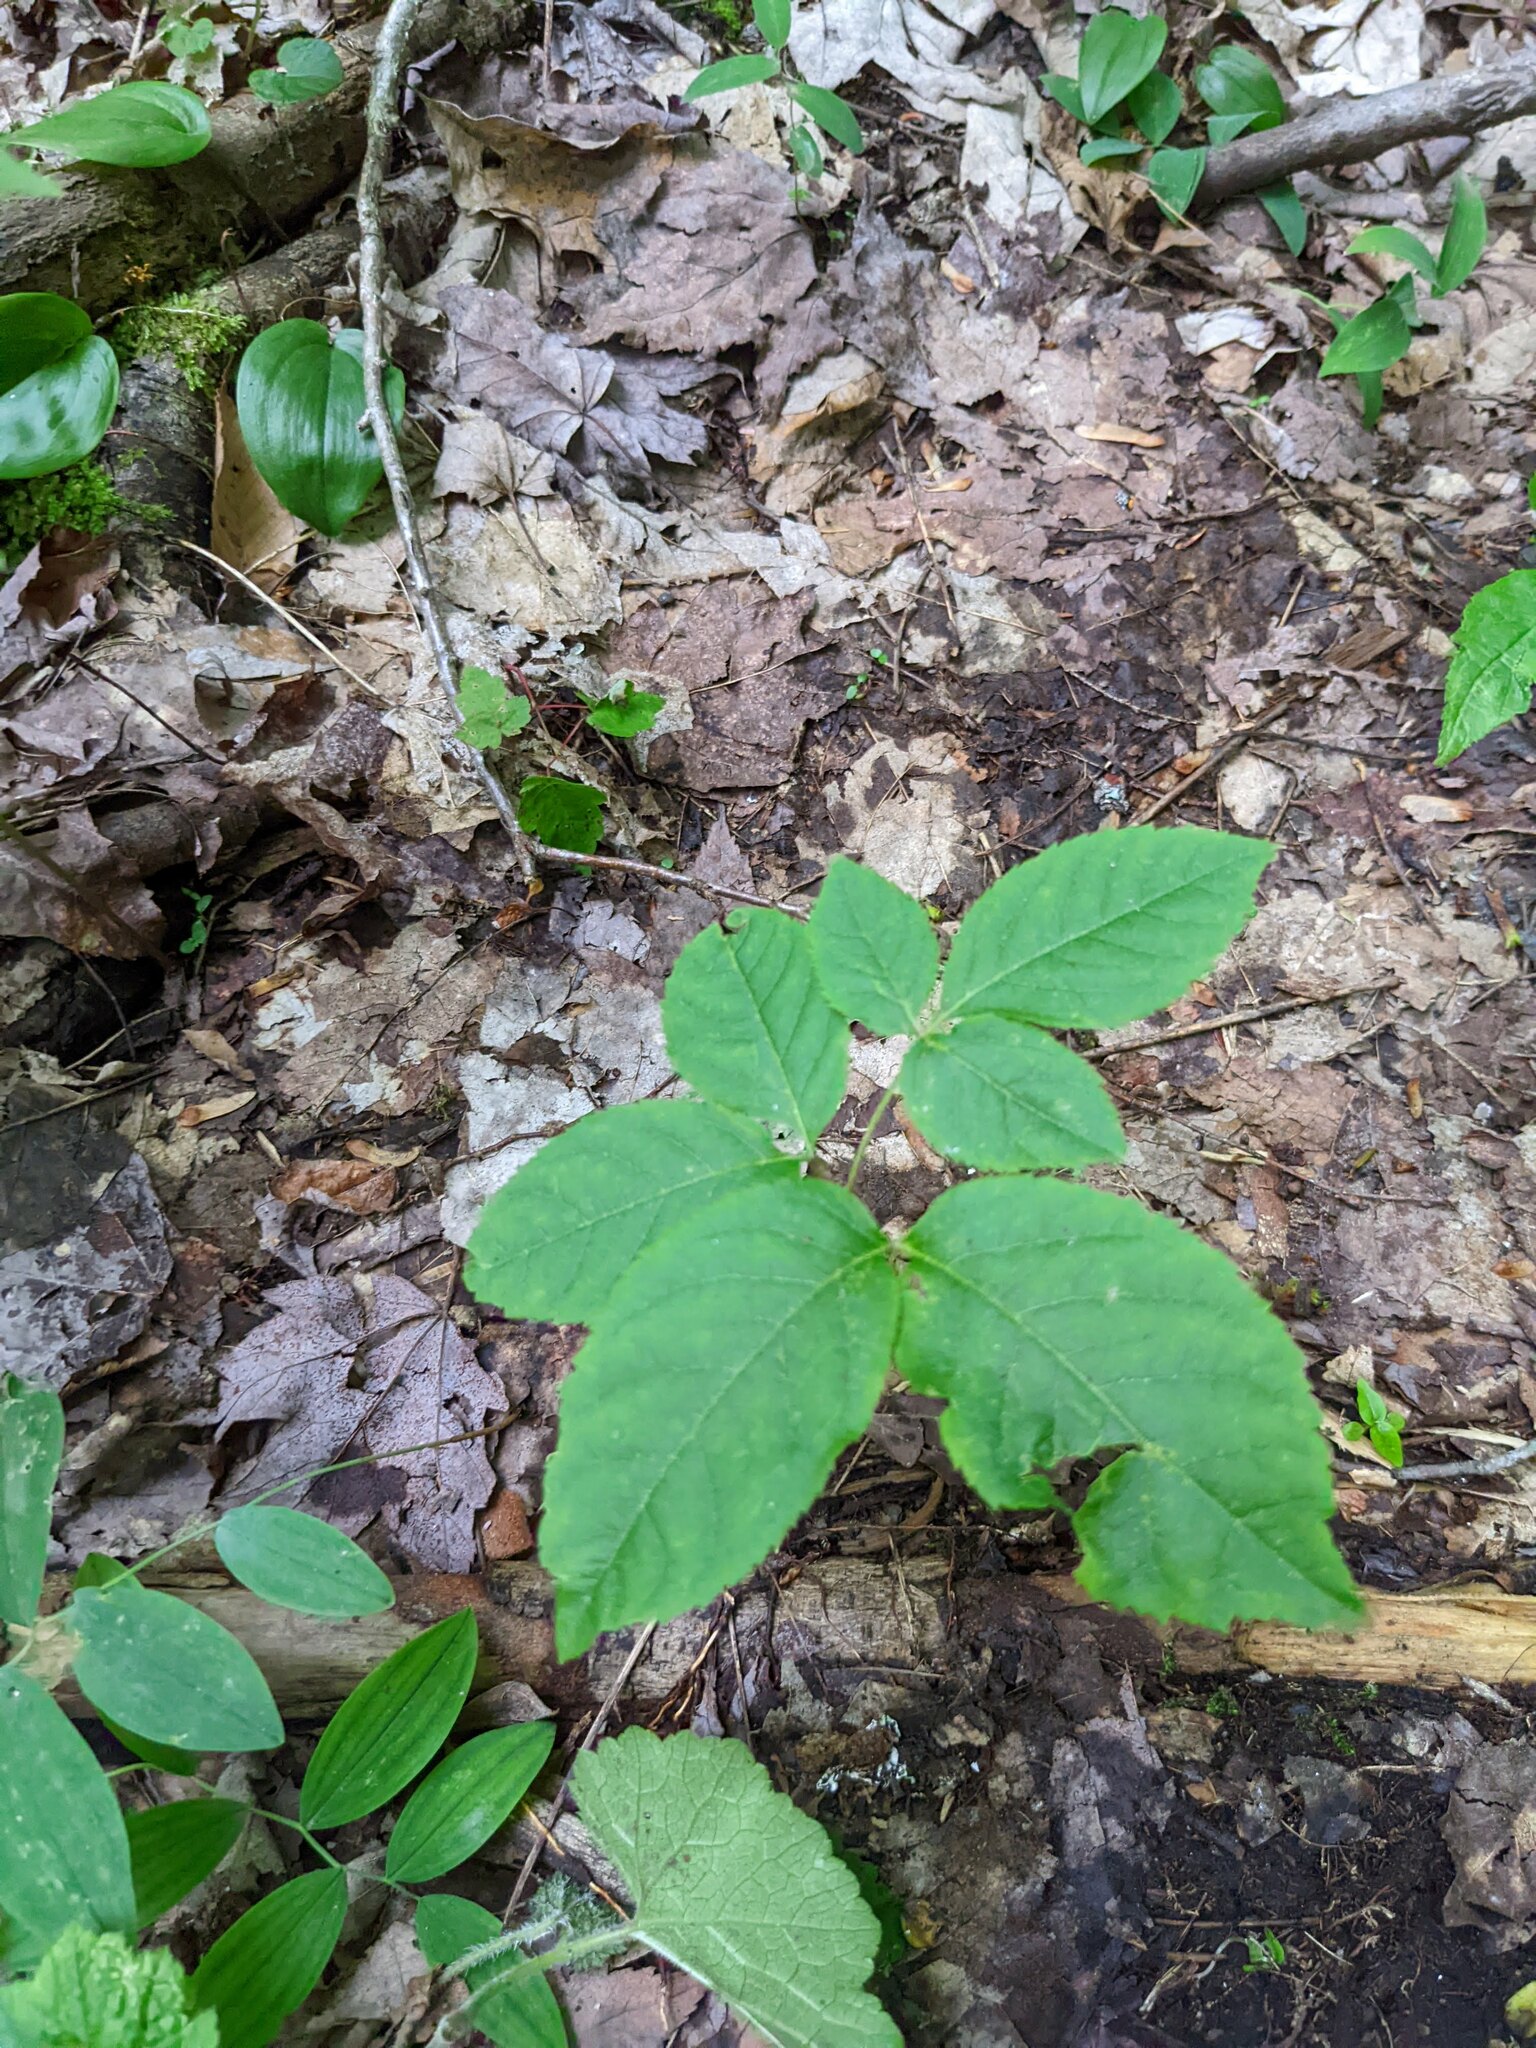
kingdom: Plantae
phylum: Tracheophyta
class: Magnoliopsida
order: Apiales
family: Araliaceae
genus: Aralia
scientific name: Aralia nudicaulis
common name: Wild sarsaparilla
